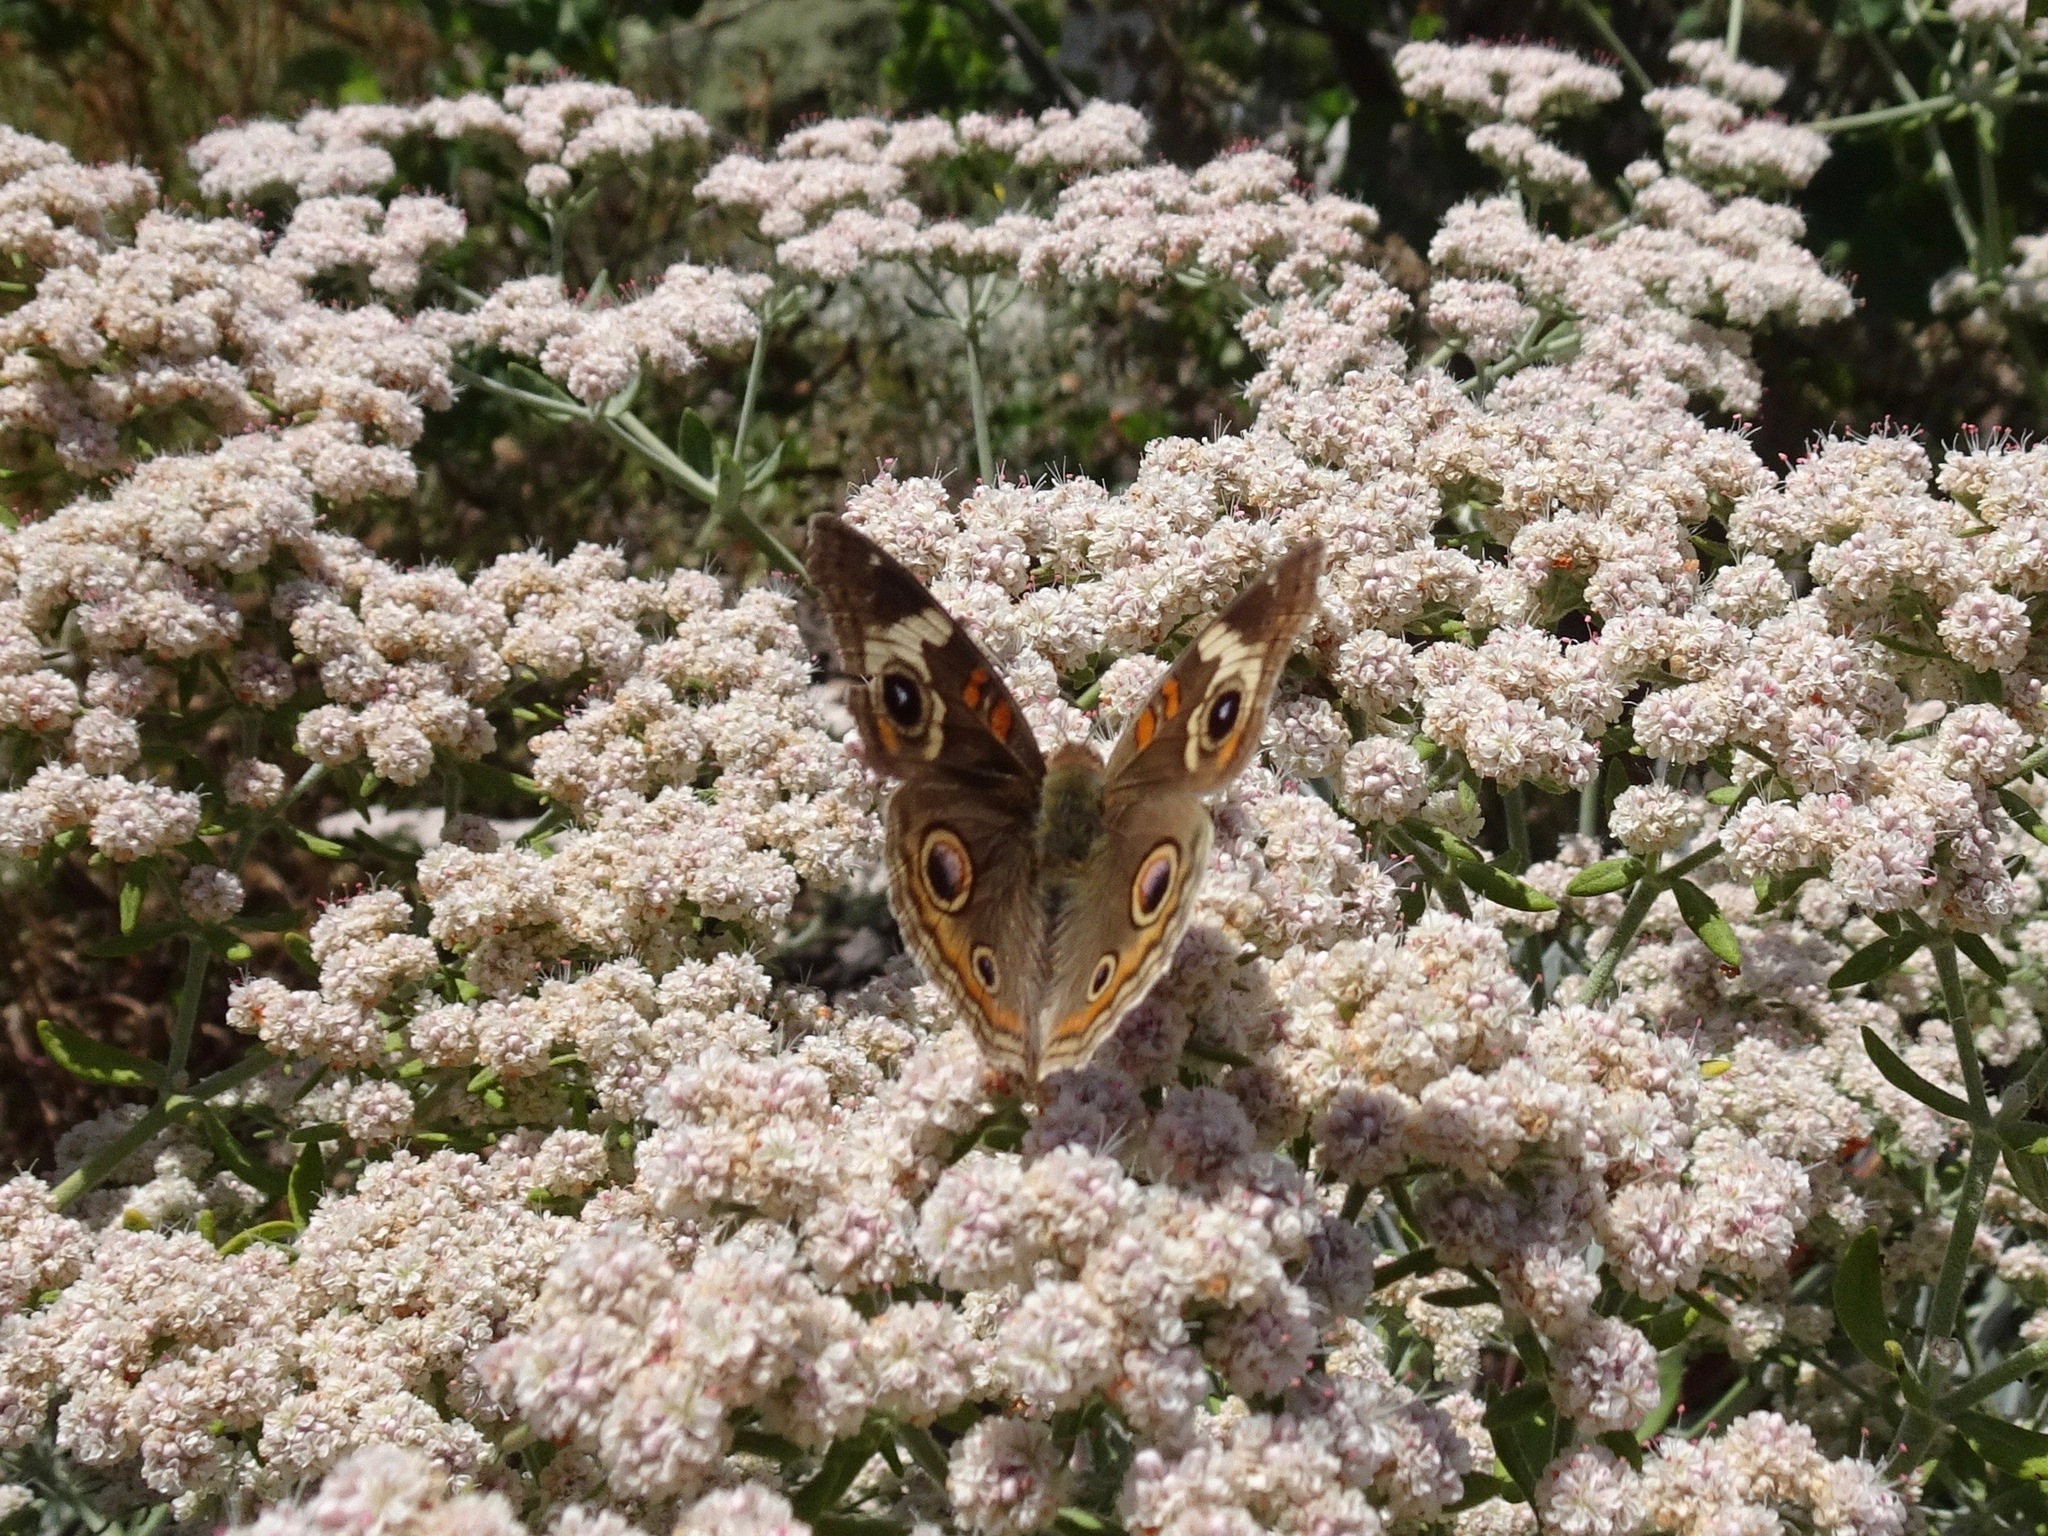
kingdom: Animalia
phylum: Arthropoda
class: Insecta
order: Lepidoptera
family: Nymphalidae
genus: Junonia
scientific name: Junonia grisea
